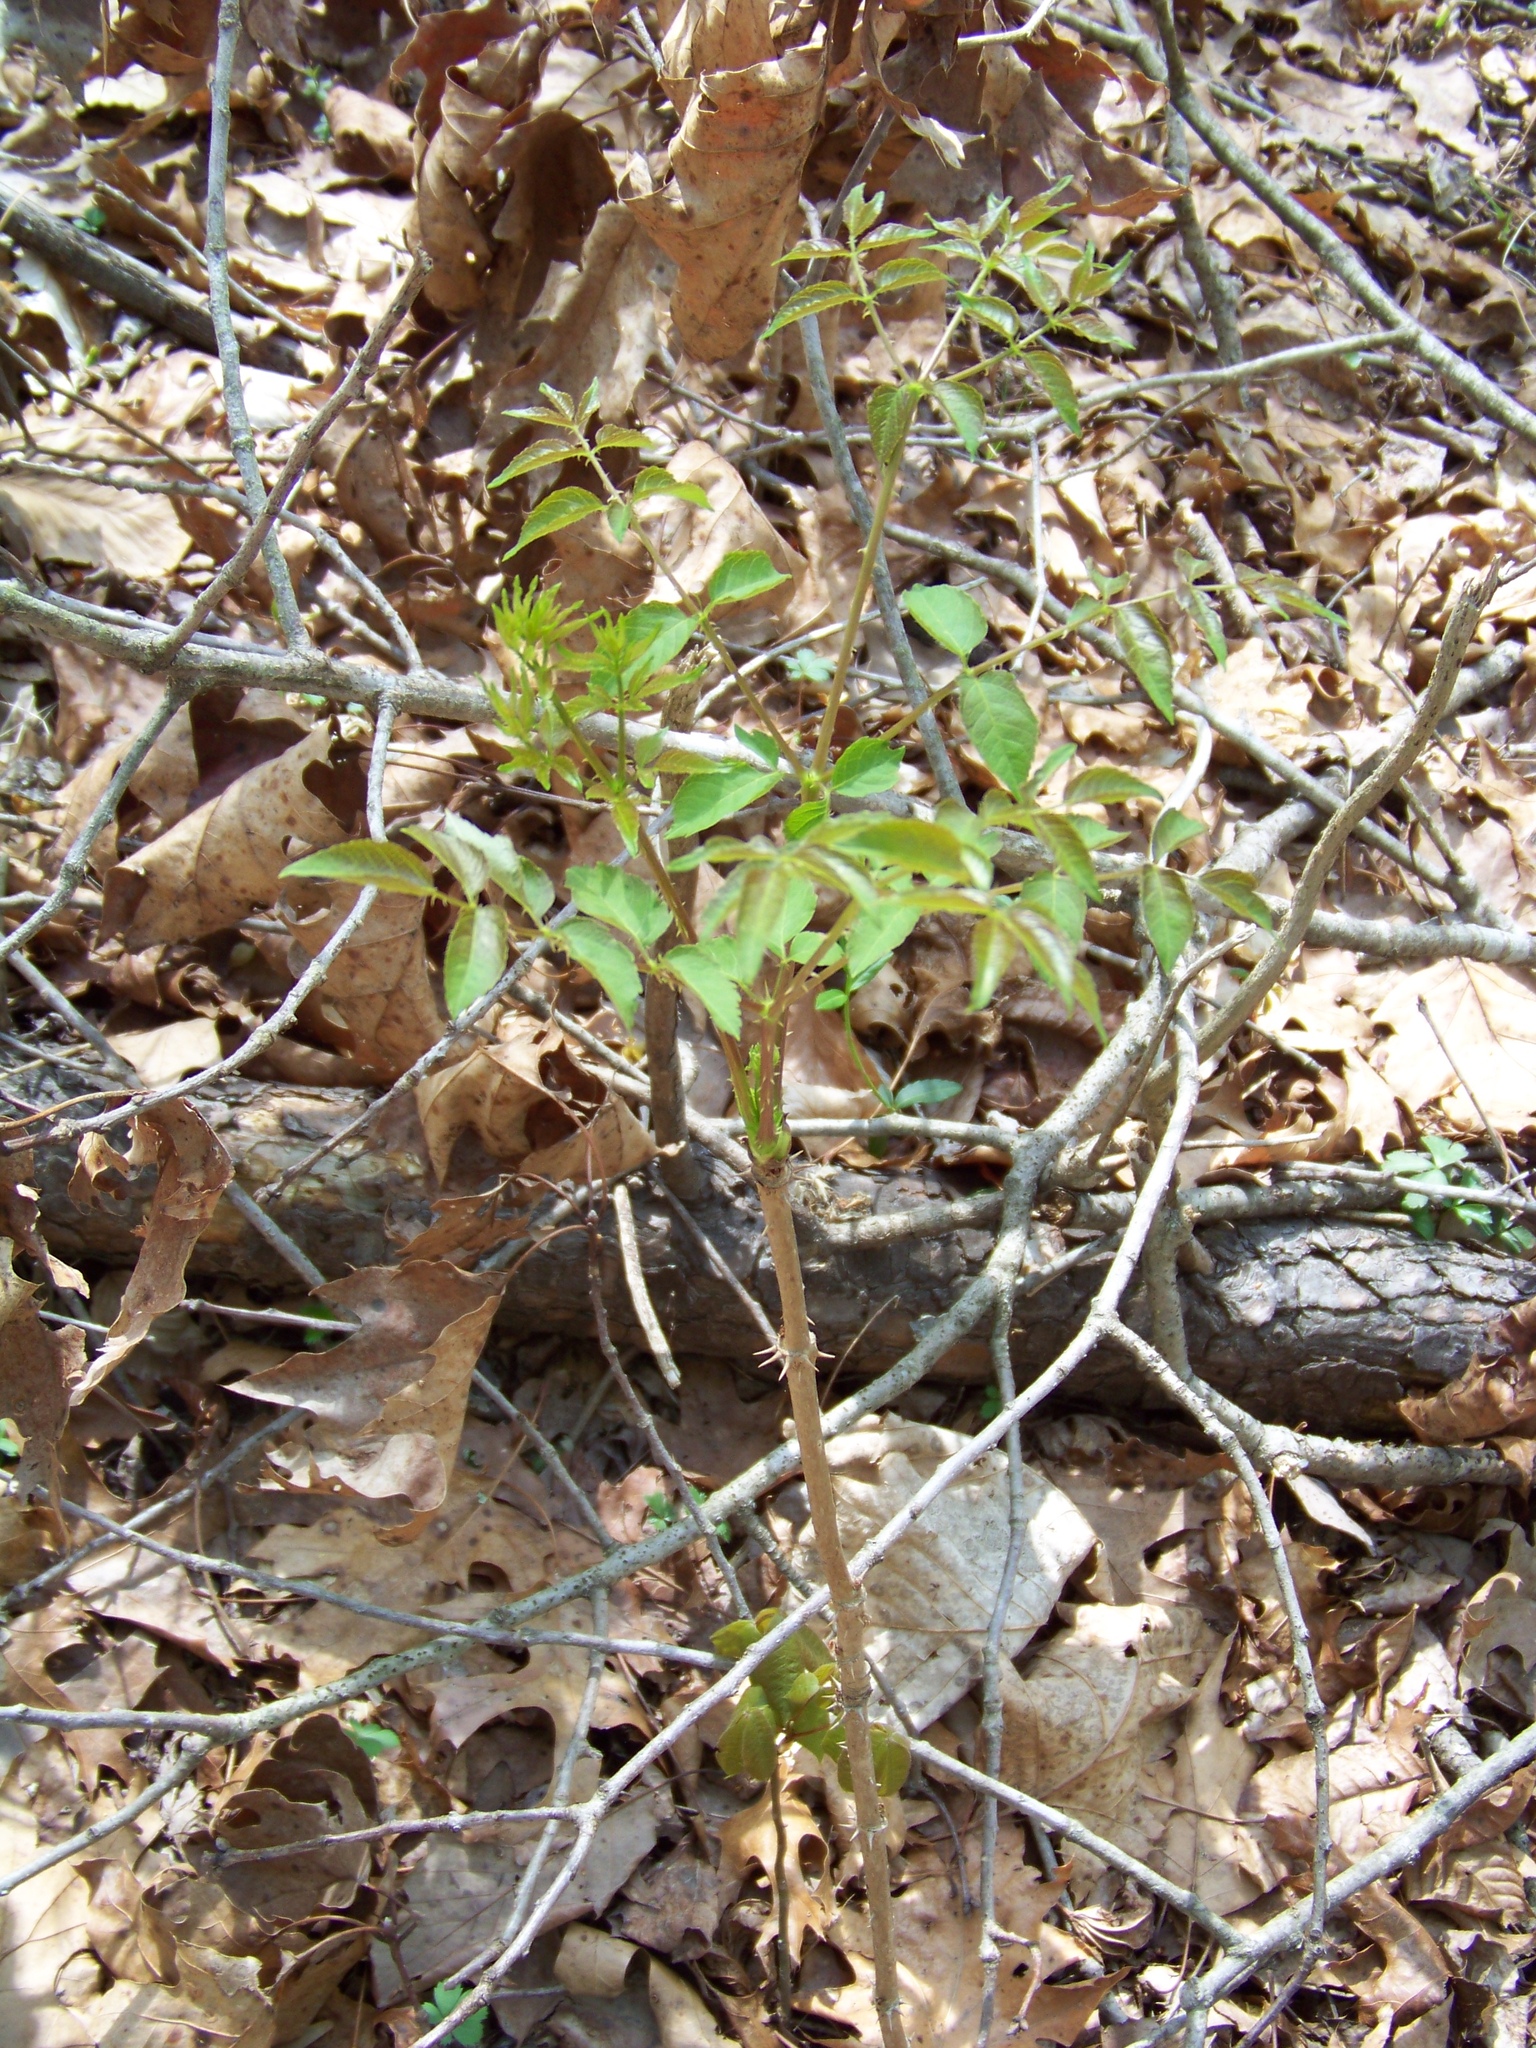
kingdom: Plantae
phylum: Tracheophyta
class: Magnoliopsida
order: Apiales
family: Araliaceae
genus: Aralia
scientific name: Aralia spinosa
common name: Hercules'-club
